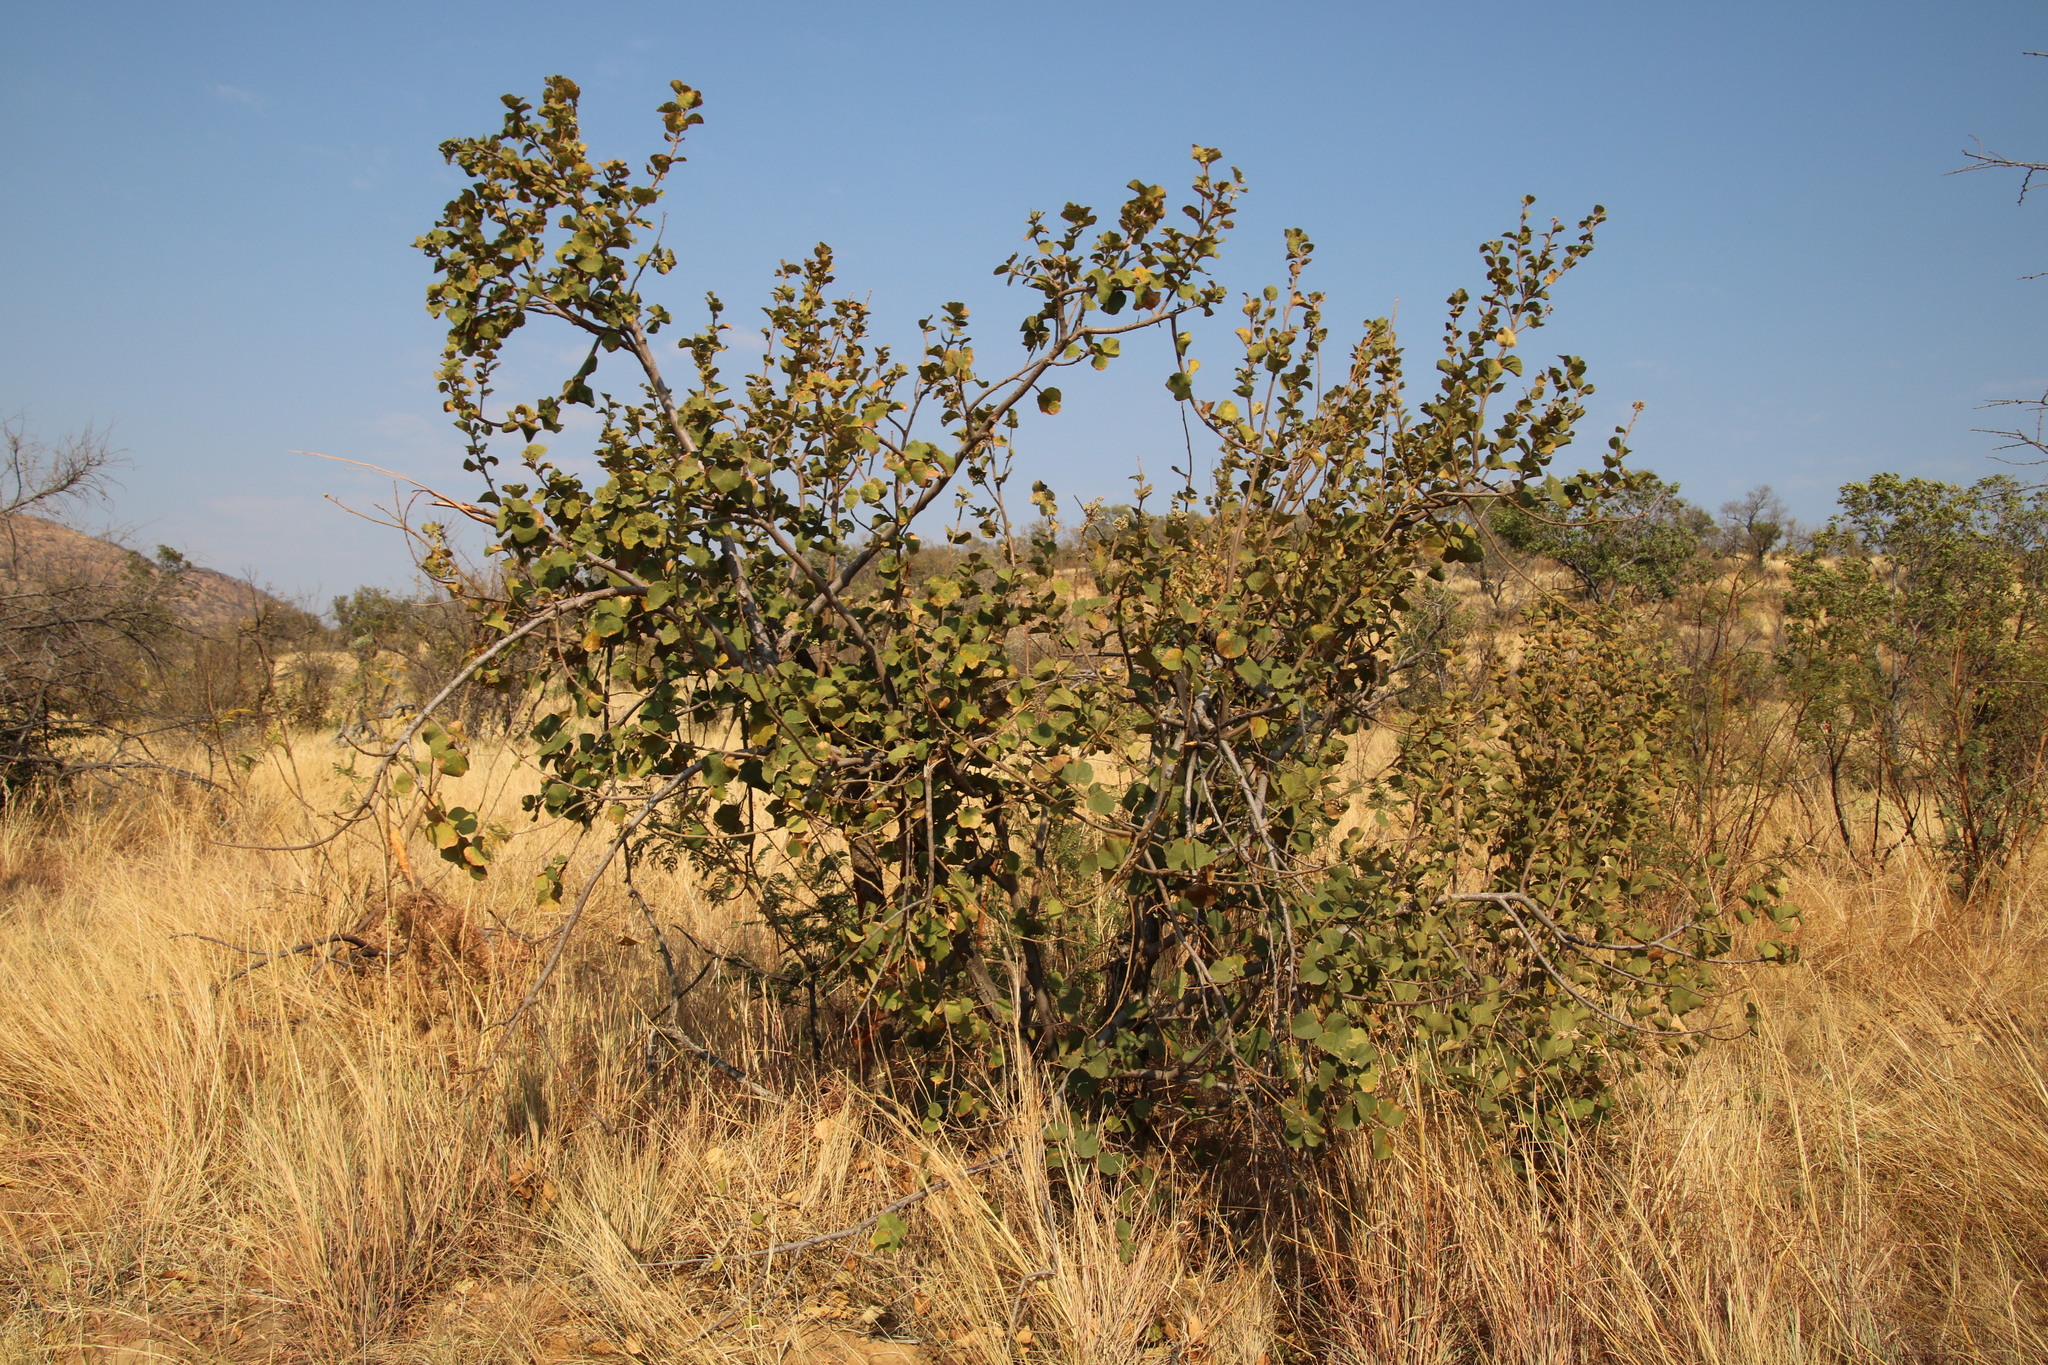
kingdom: Plantae
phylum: Tracheophyta
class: Magnoliopsida
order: Malvales
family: Malvaceae
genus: Dombeya
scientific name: Dombeya rotundifolia
